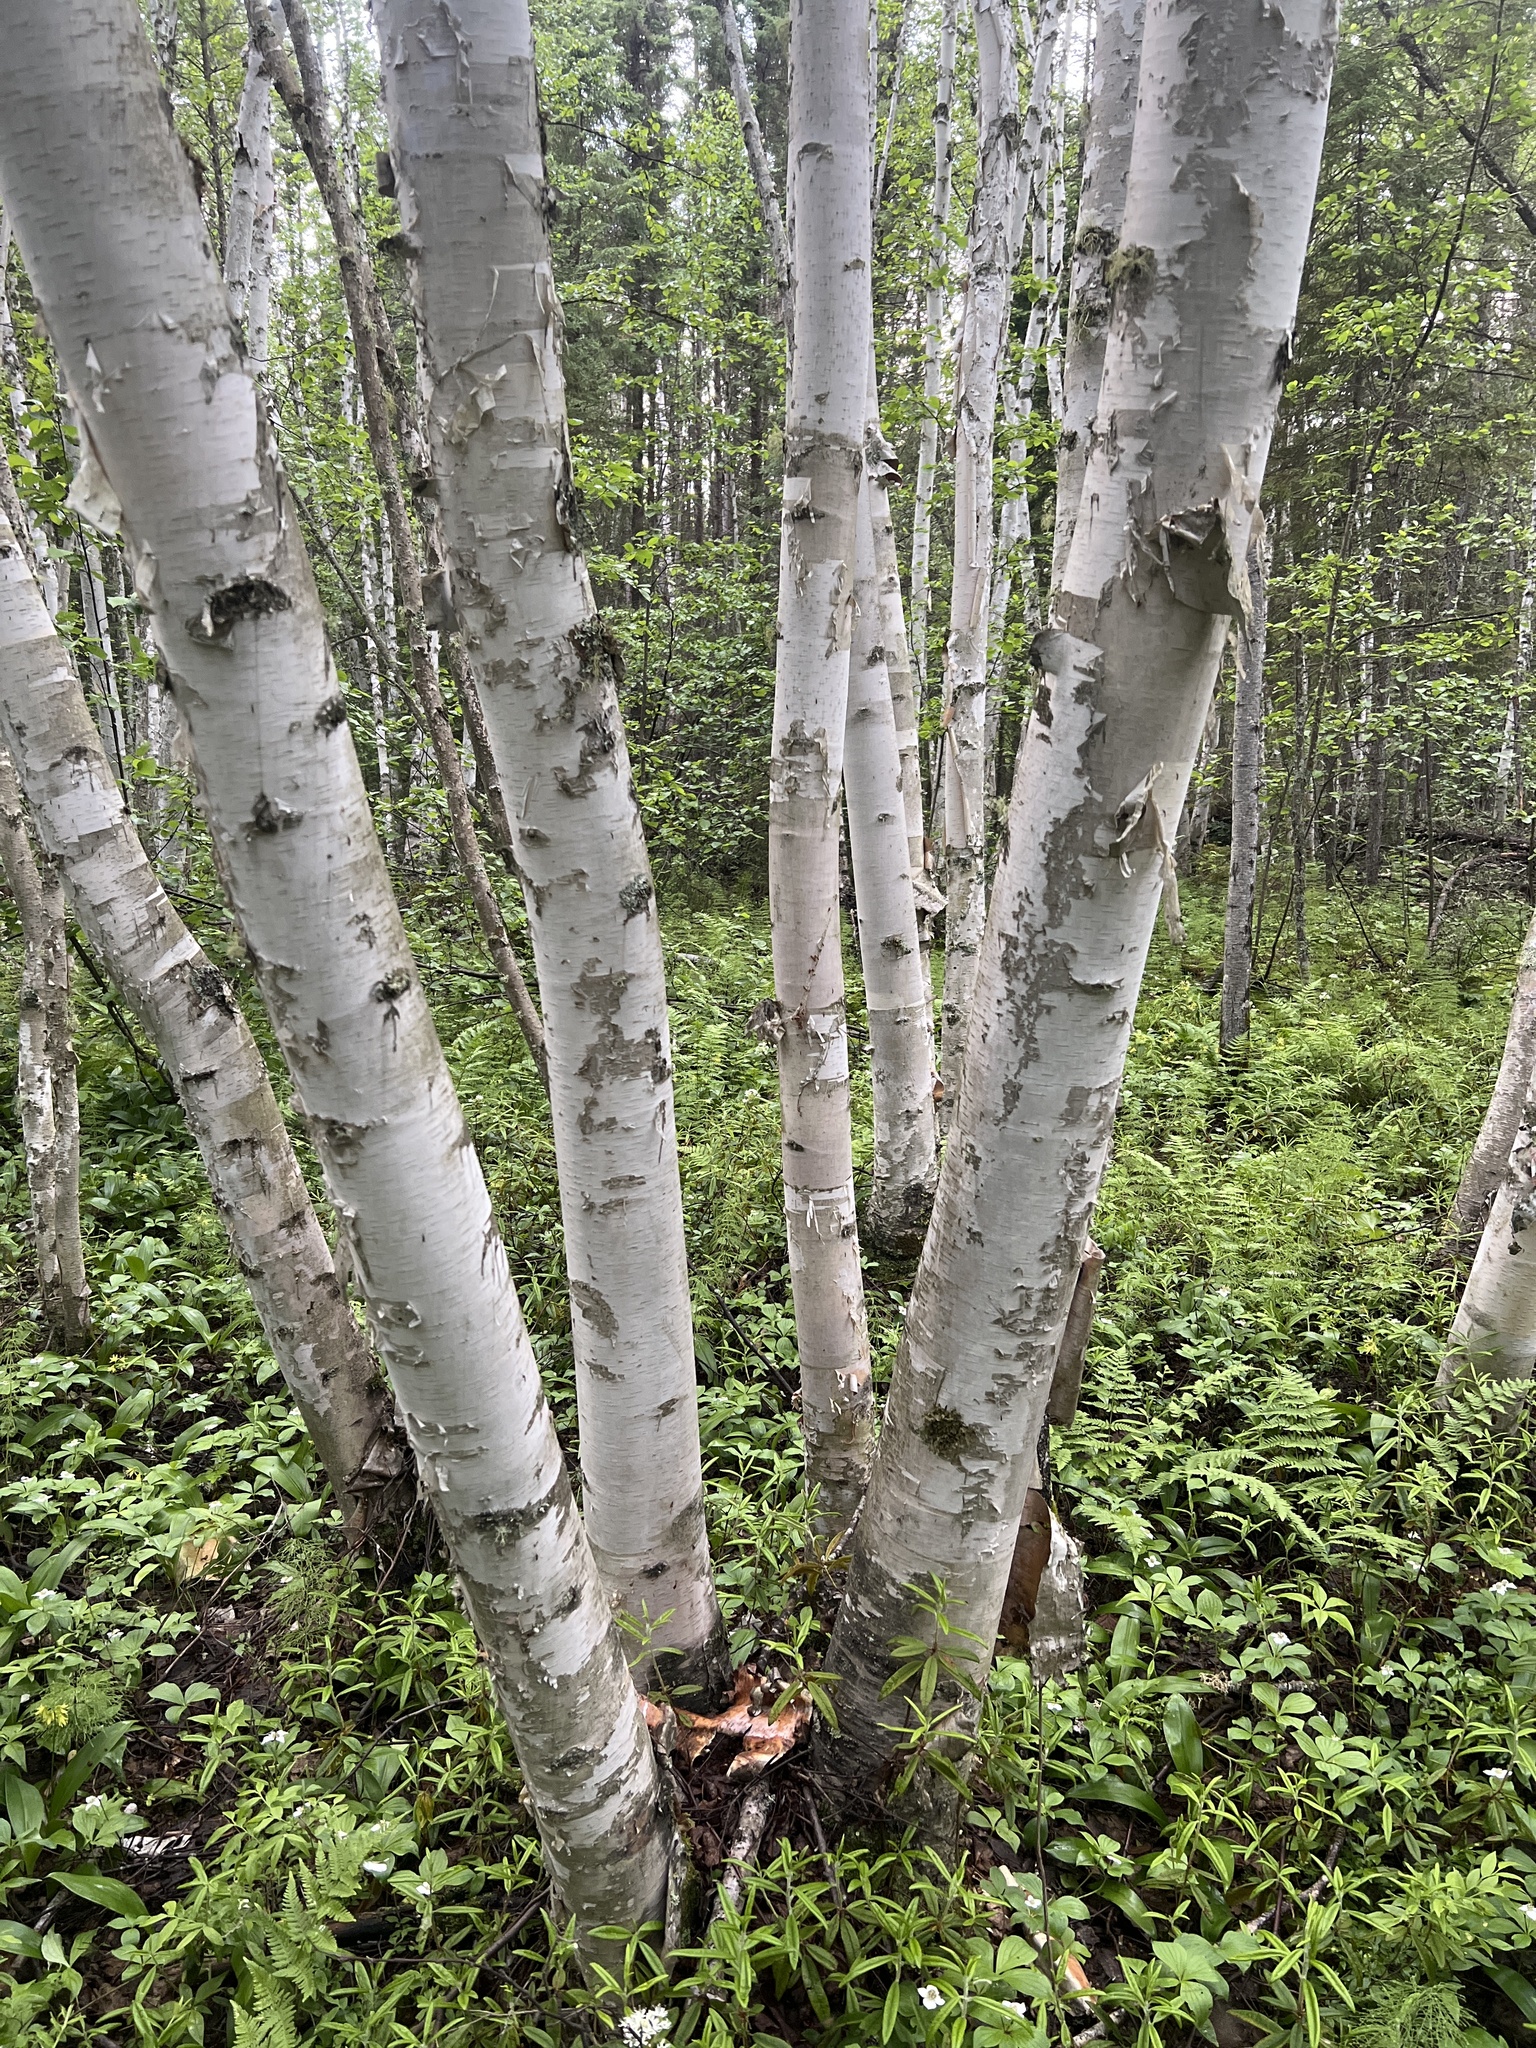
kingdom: Plantae
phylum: Tracheophyta
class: Magnoliopsida
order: Fagales
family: Betulaceae
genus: Betula
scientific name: Betula papyrifera
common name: Paper birch
